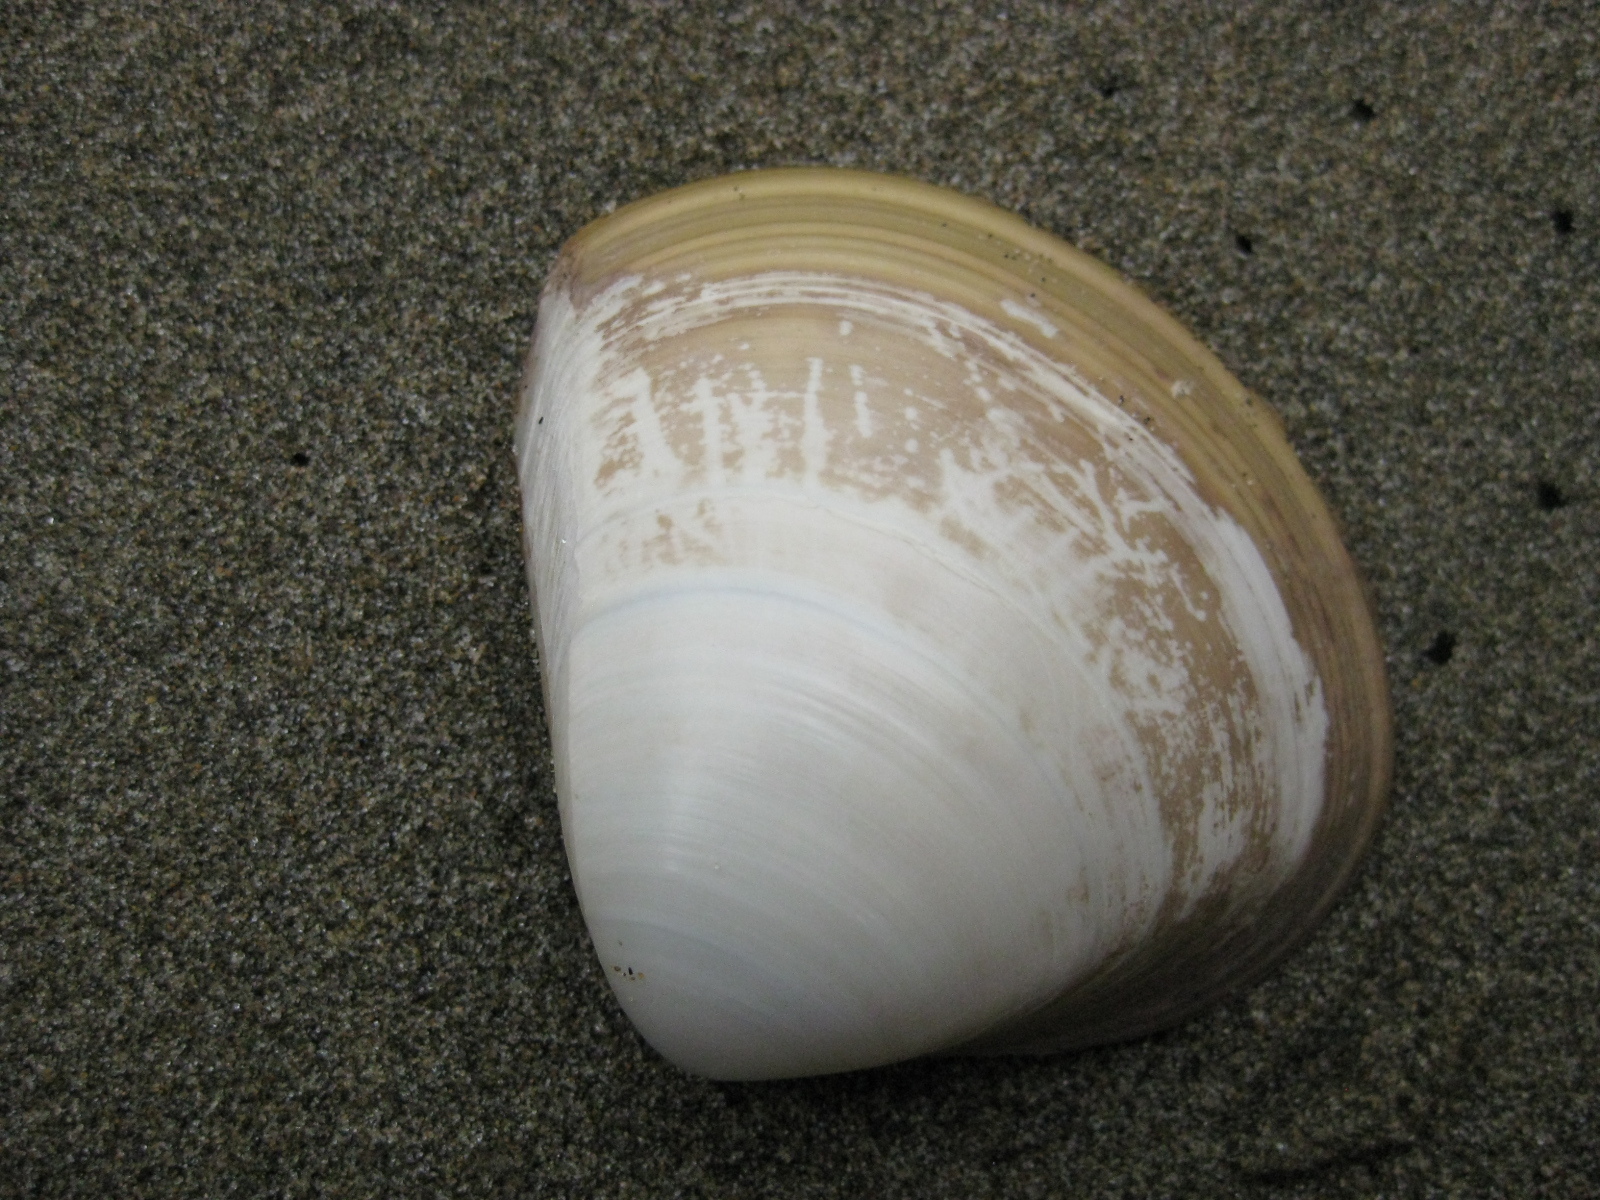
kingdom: Animalia
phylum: Mollusca
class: Bivalvia
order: Venerida
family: Mactridae
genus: Spisula
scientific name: Spisula discors
